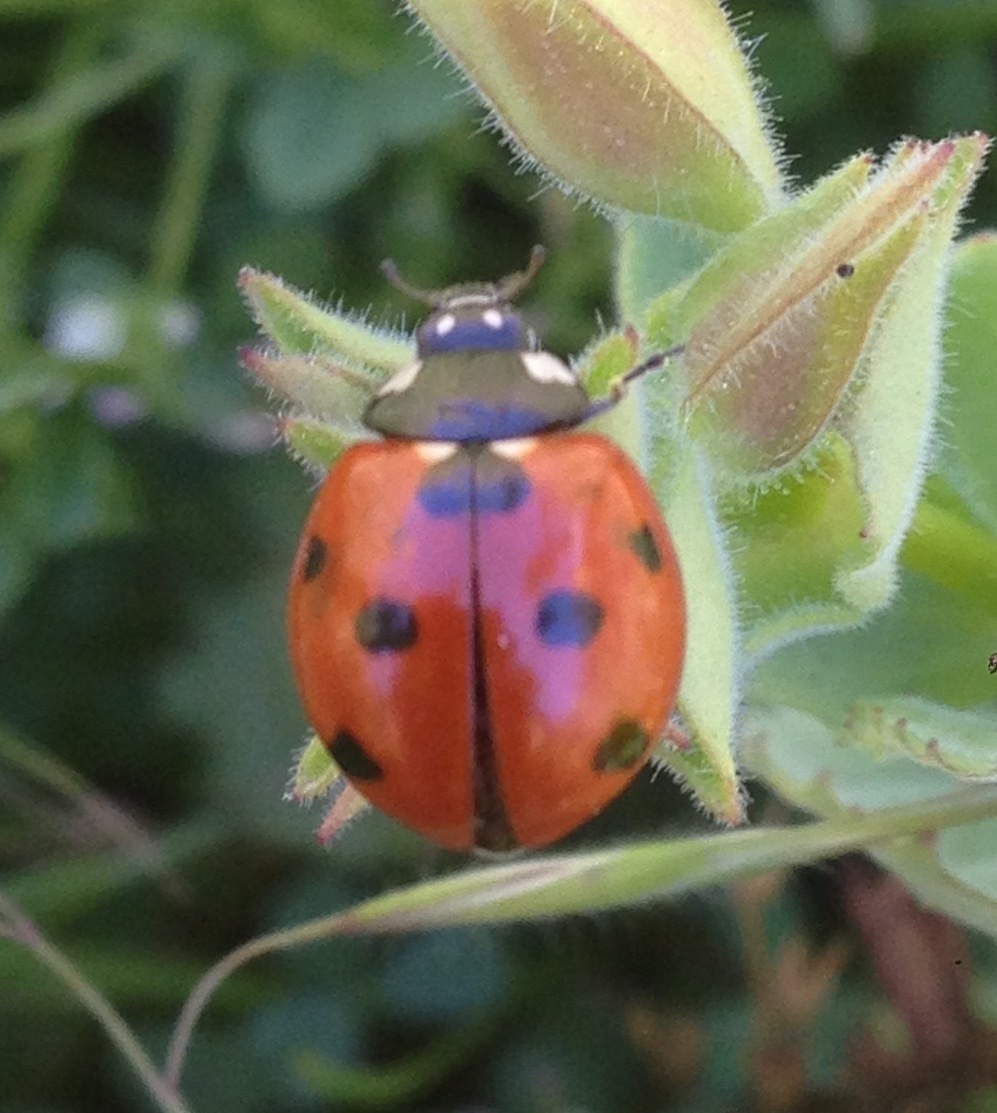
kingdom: Animalia
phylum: Arthropoda
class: Insecta
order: Coleoptera
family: Coccinellidae
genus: Coccinella
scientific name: Coccinella septempunctata
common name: Sevenspotted lady beetle
